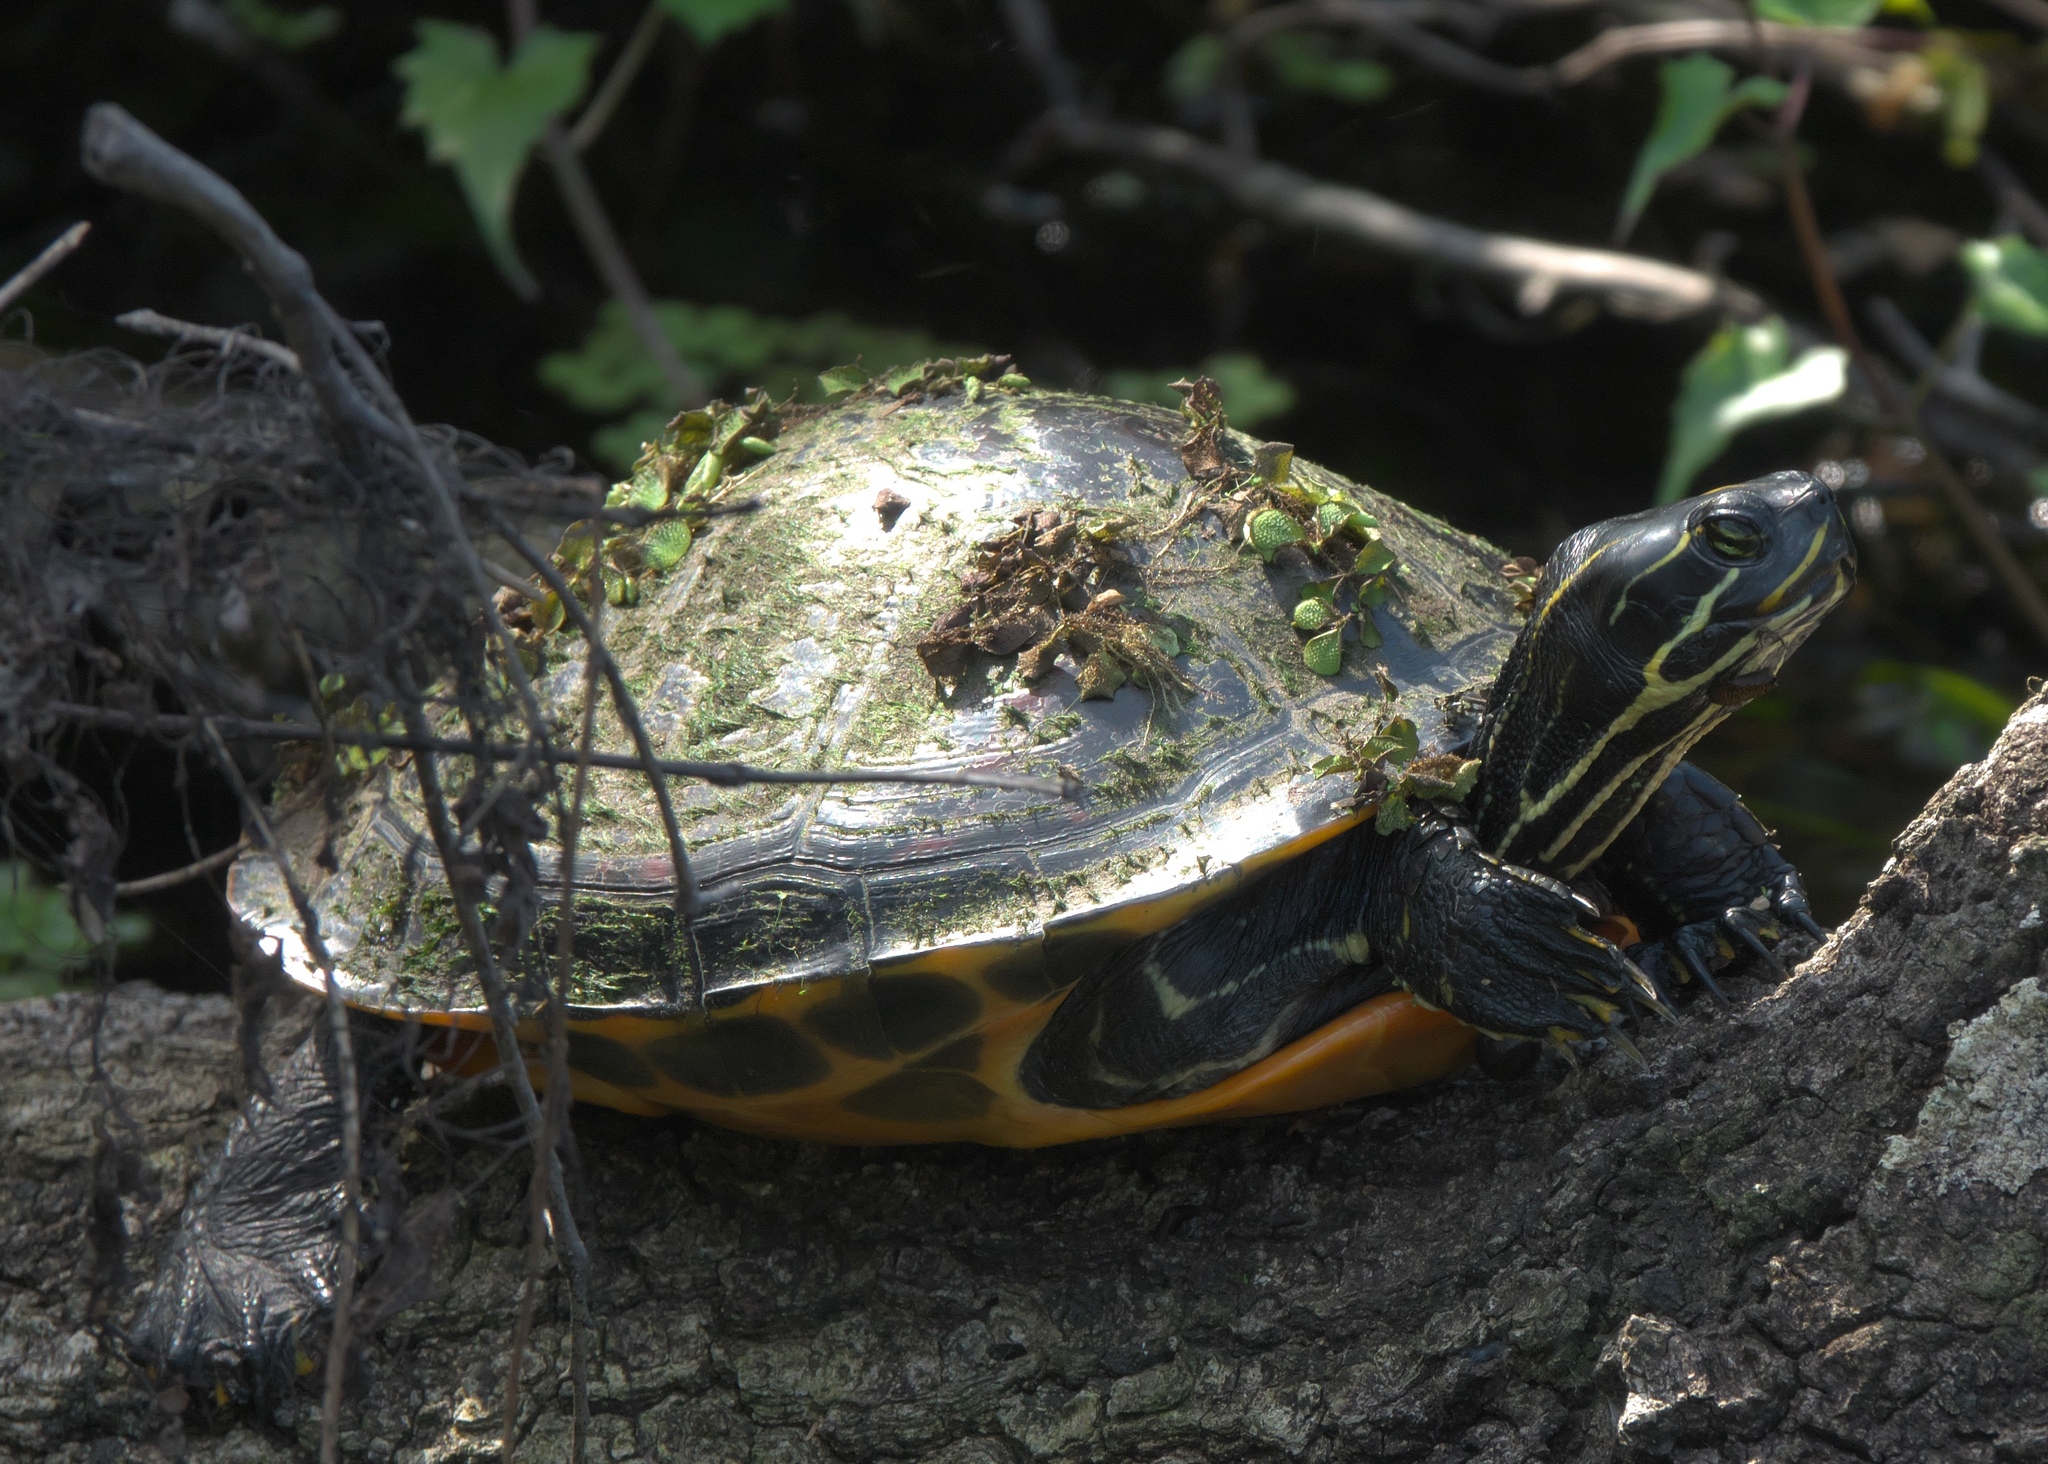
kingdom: Animalia
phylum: Chordata
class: Testudines
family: Emydidae
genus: Pseudemys
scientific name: Pseudemys nelsoni
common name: Florida red-bellied turtle
